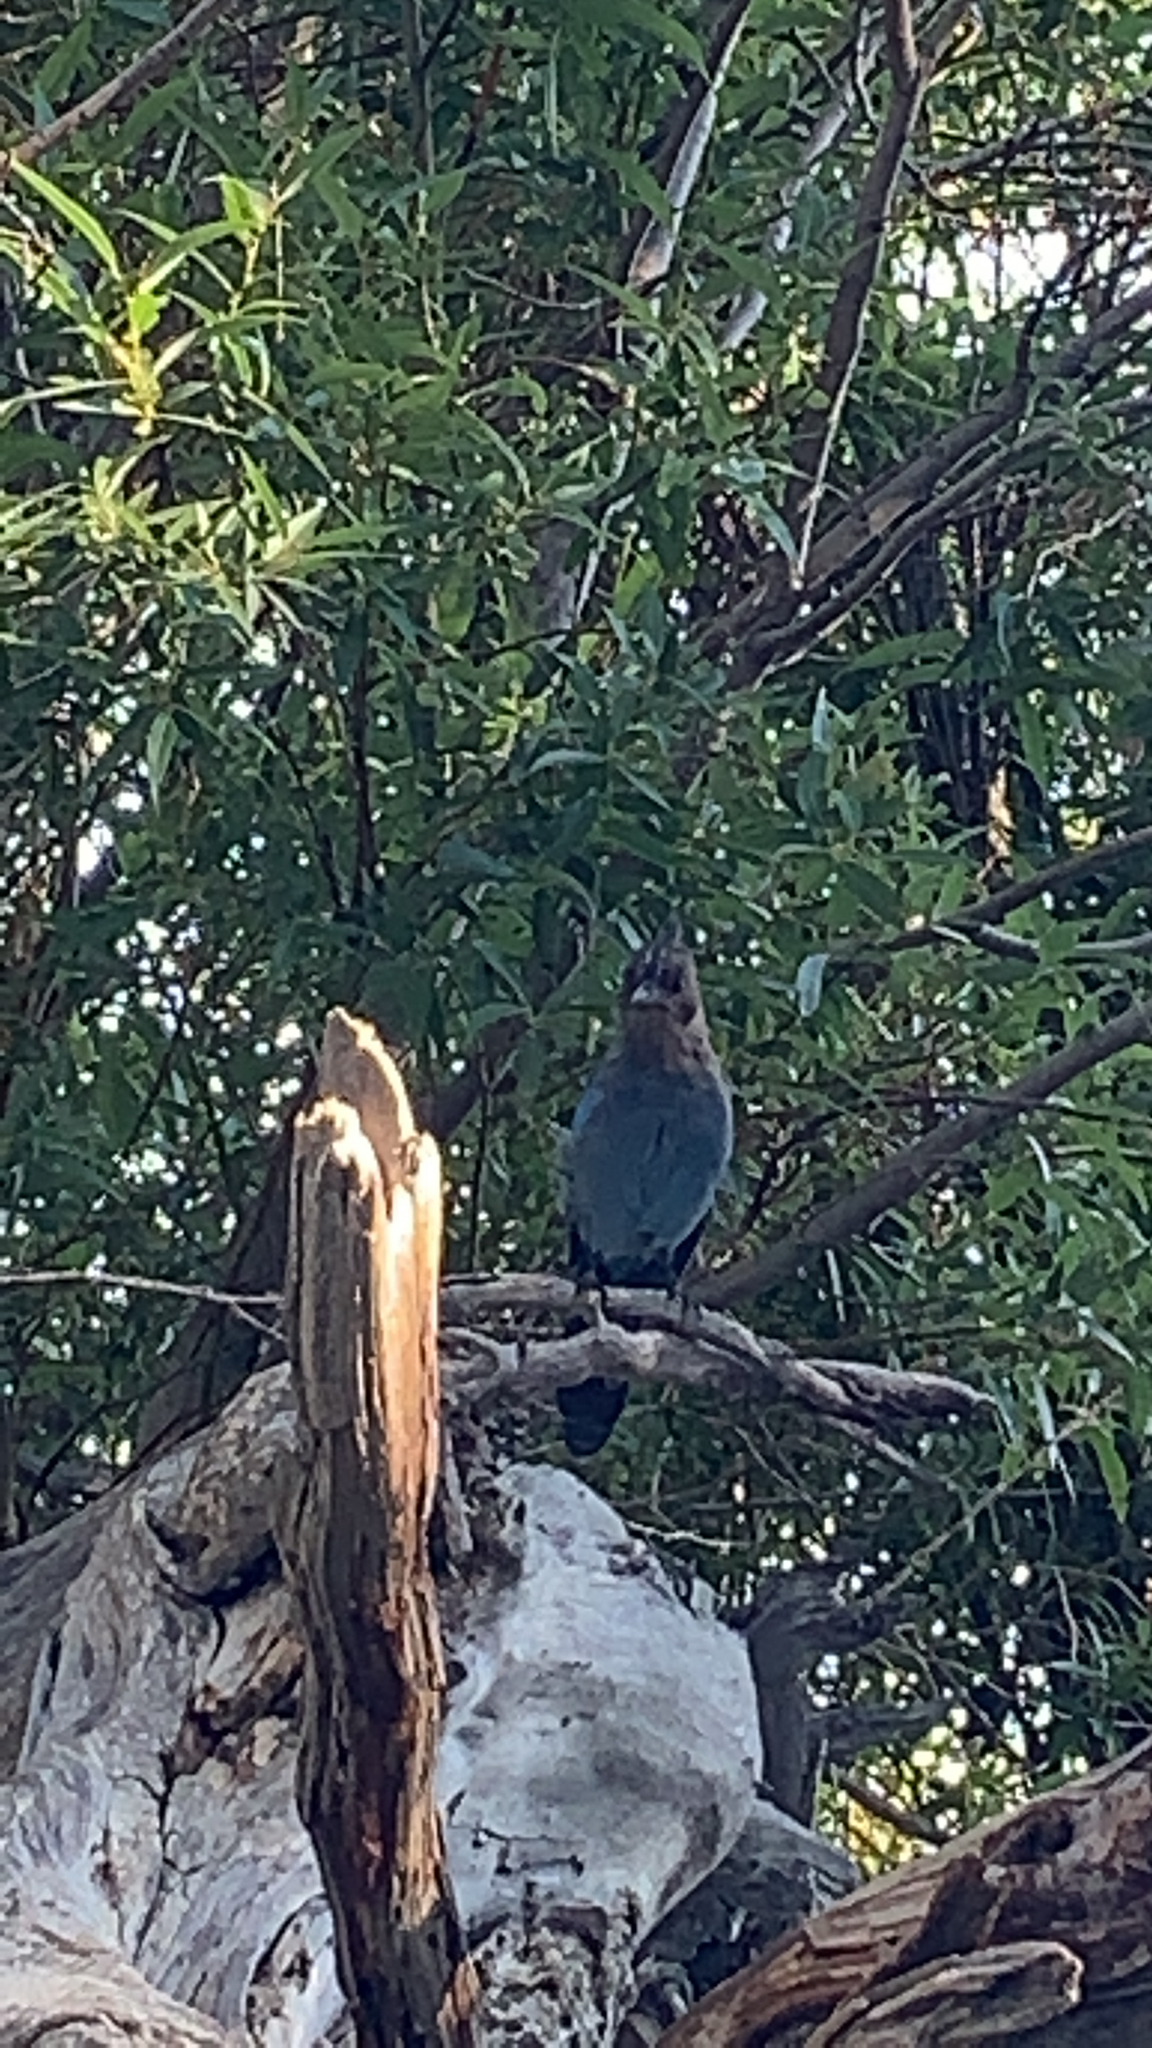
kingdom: Animalia
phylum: Chordata
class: Aves
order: Passeriformes
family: Corvidae
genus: Cyanocitta
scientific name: Cyanocitta stelleri
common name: Steller's jay
